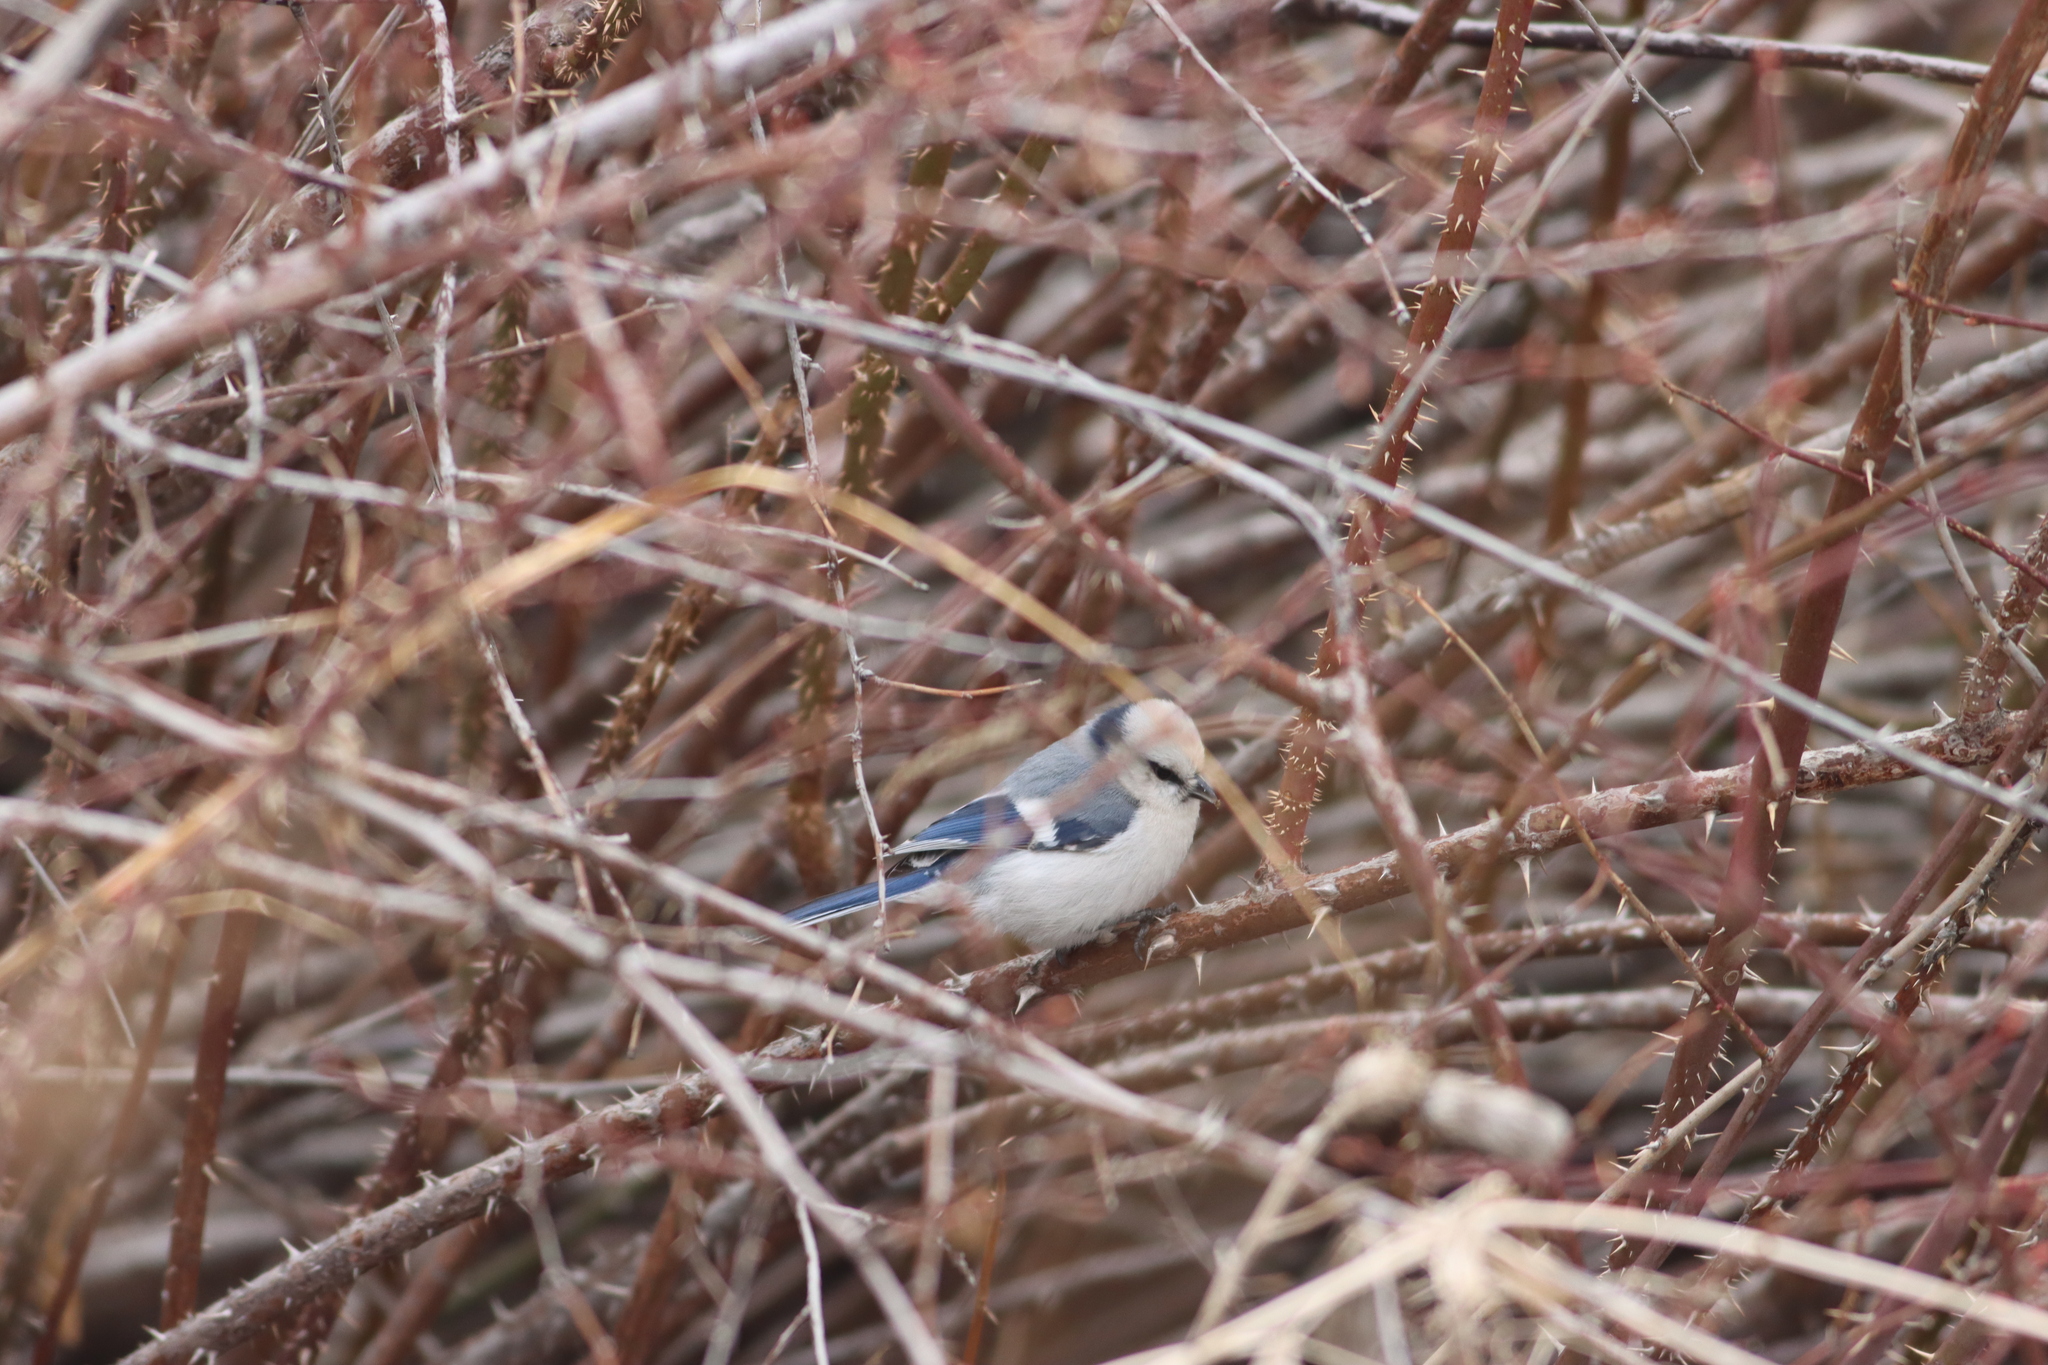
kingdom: Animalia
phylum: Chordata
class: Aves
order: Passeriformes
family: Paridae
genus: Cyanistes
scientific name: Cyanistes cyanus
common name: Azure tit
